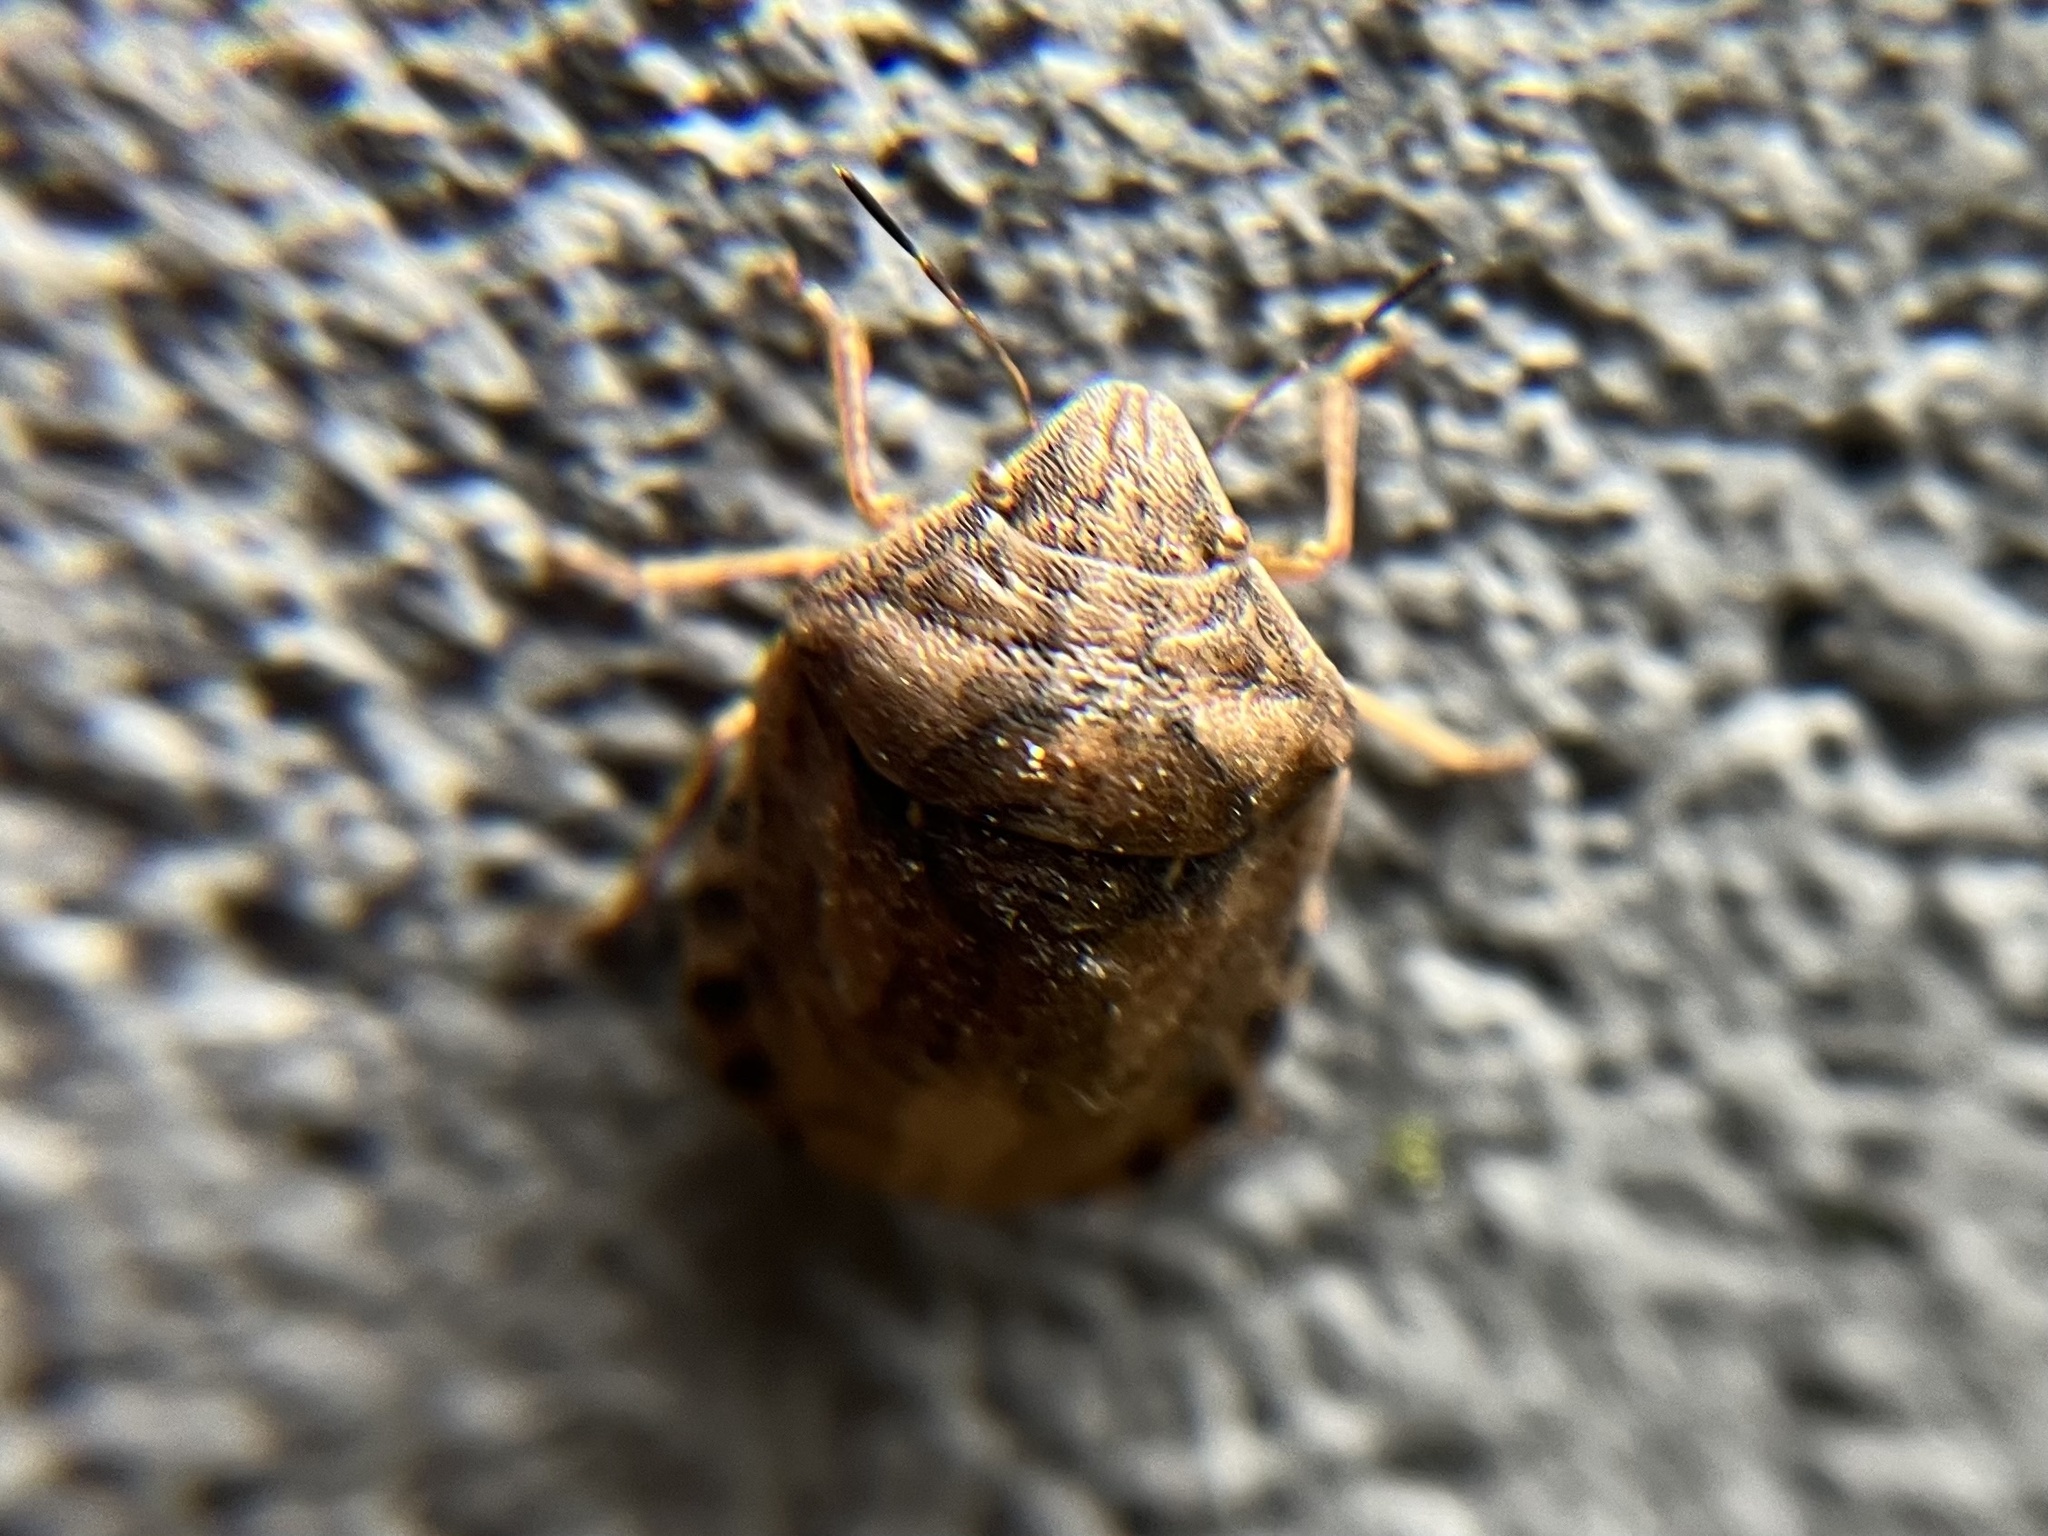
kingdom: Animalia
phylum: Arthropoda
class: Insecta
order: Hemiptera
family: Scutelleridae
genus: Eurygaster
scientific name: Eurygaster maura
